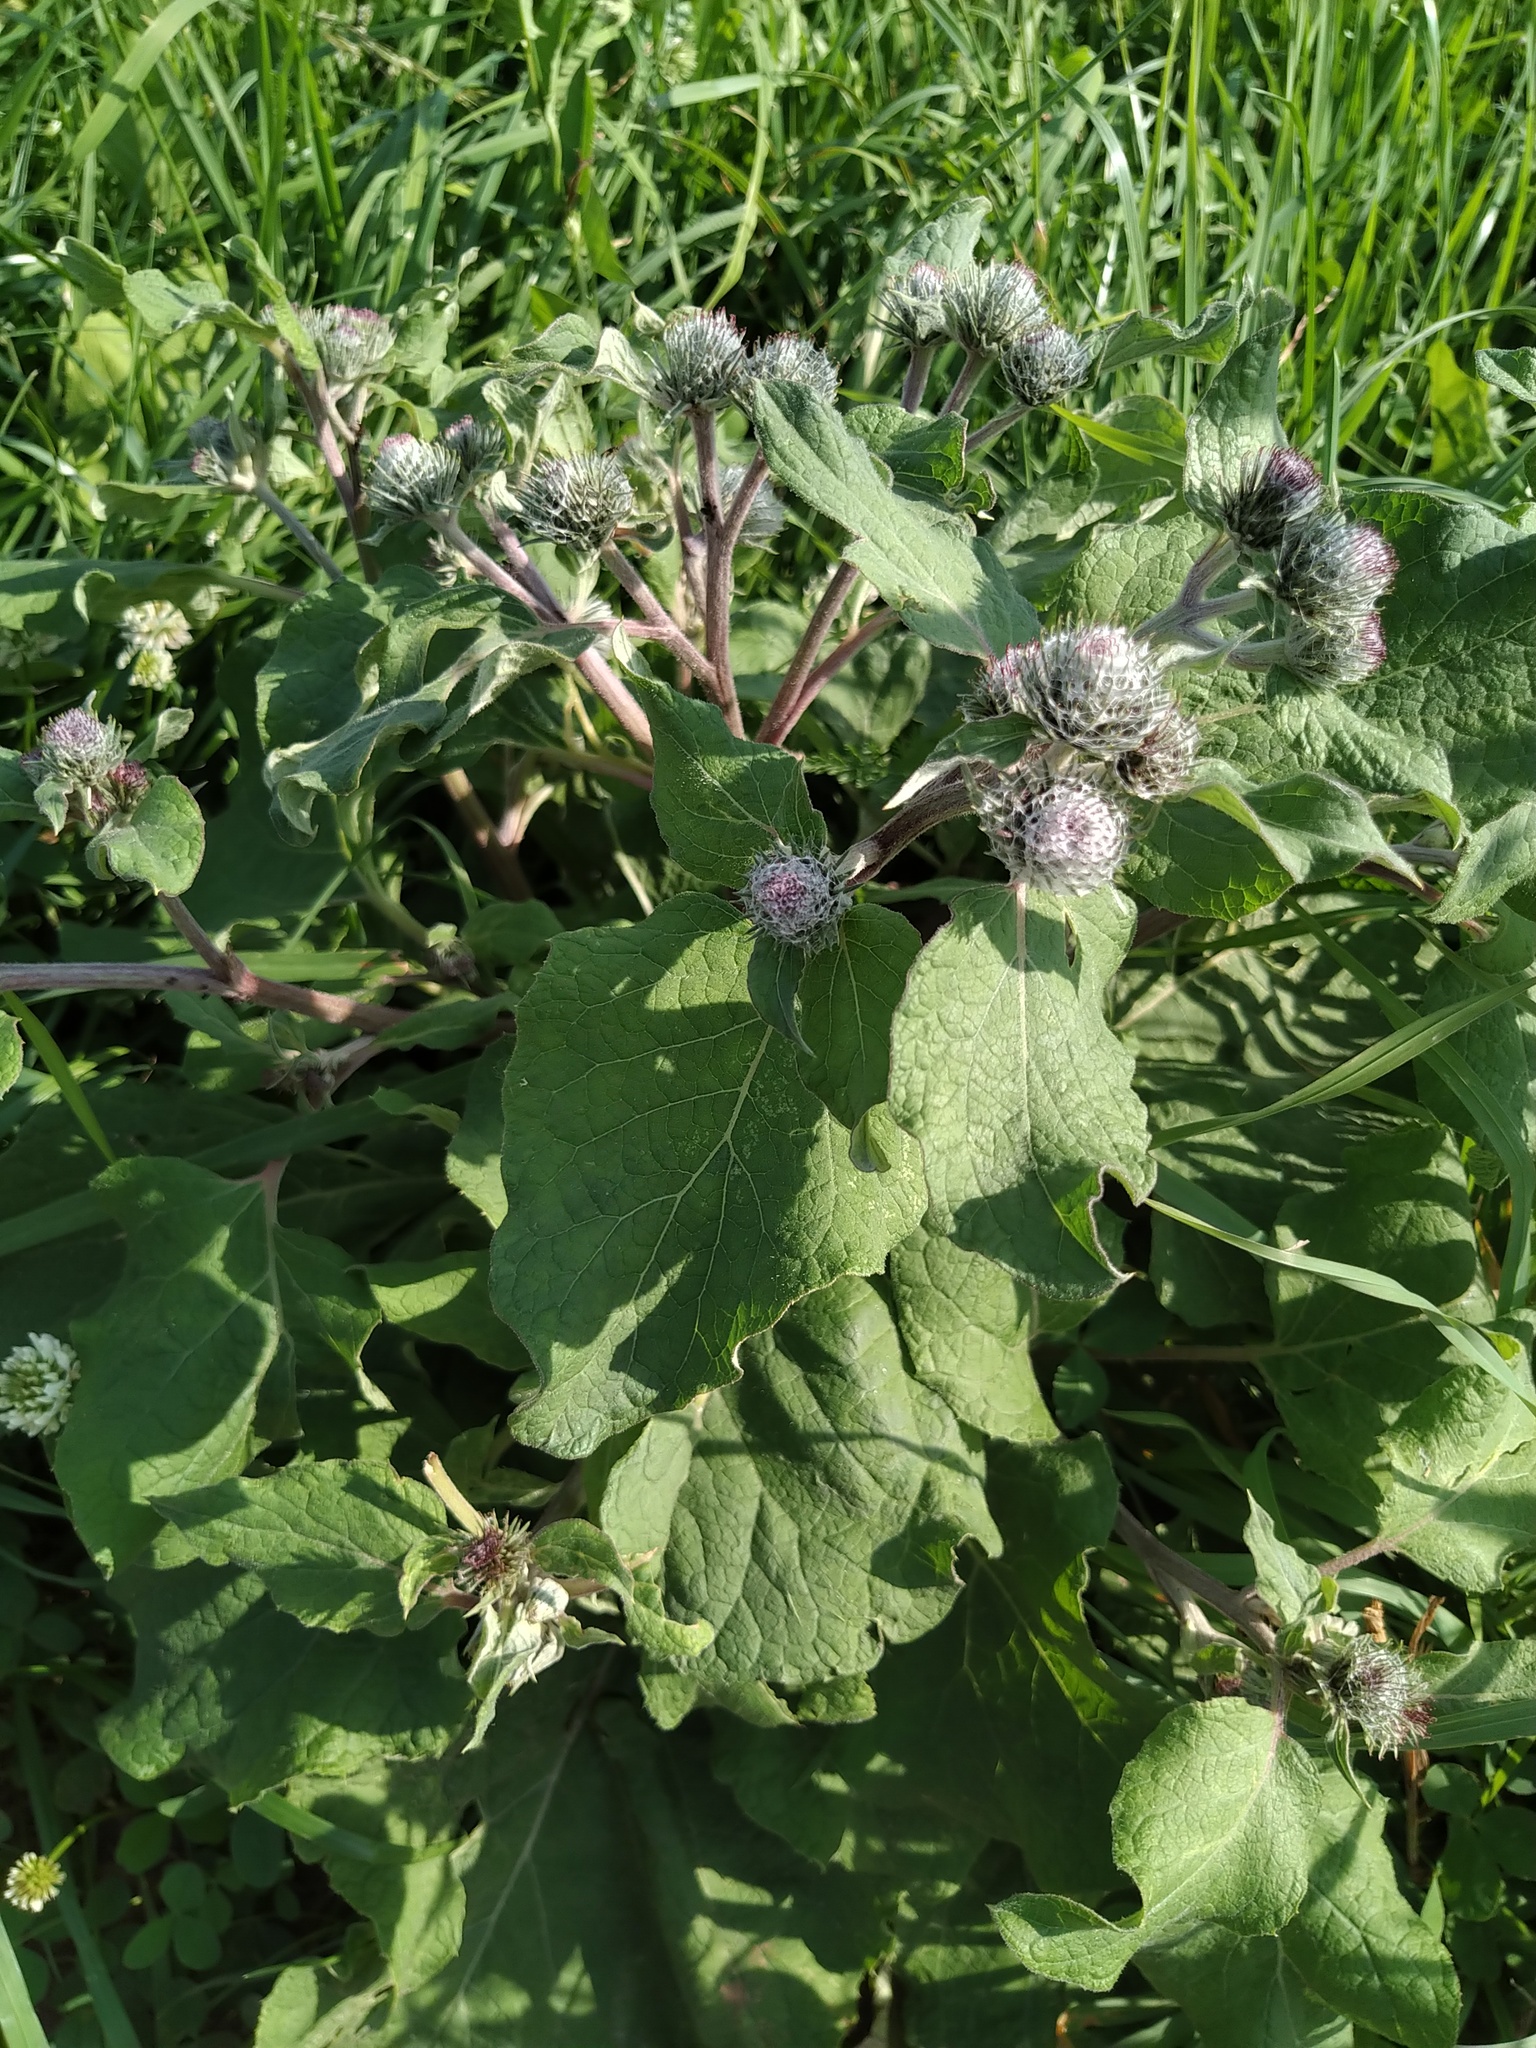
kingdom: Plantae
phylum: Tracheophyta
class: Magnoliopsida
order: Asterales
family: Asteraceae
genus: Arctium
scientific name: Arctium tomentosum
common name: Woolly burdock
